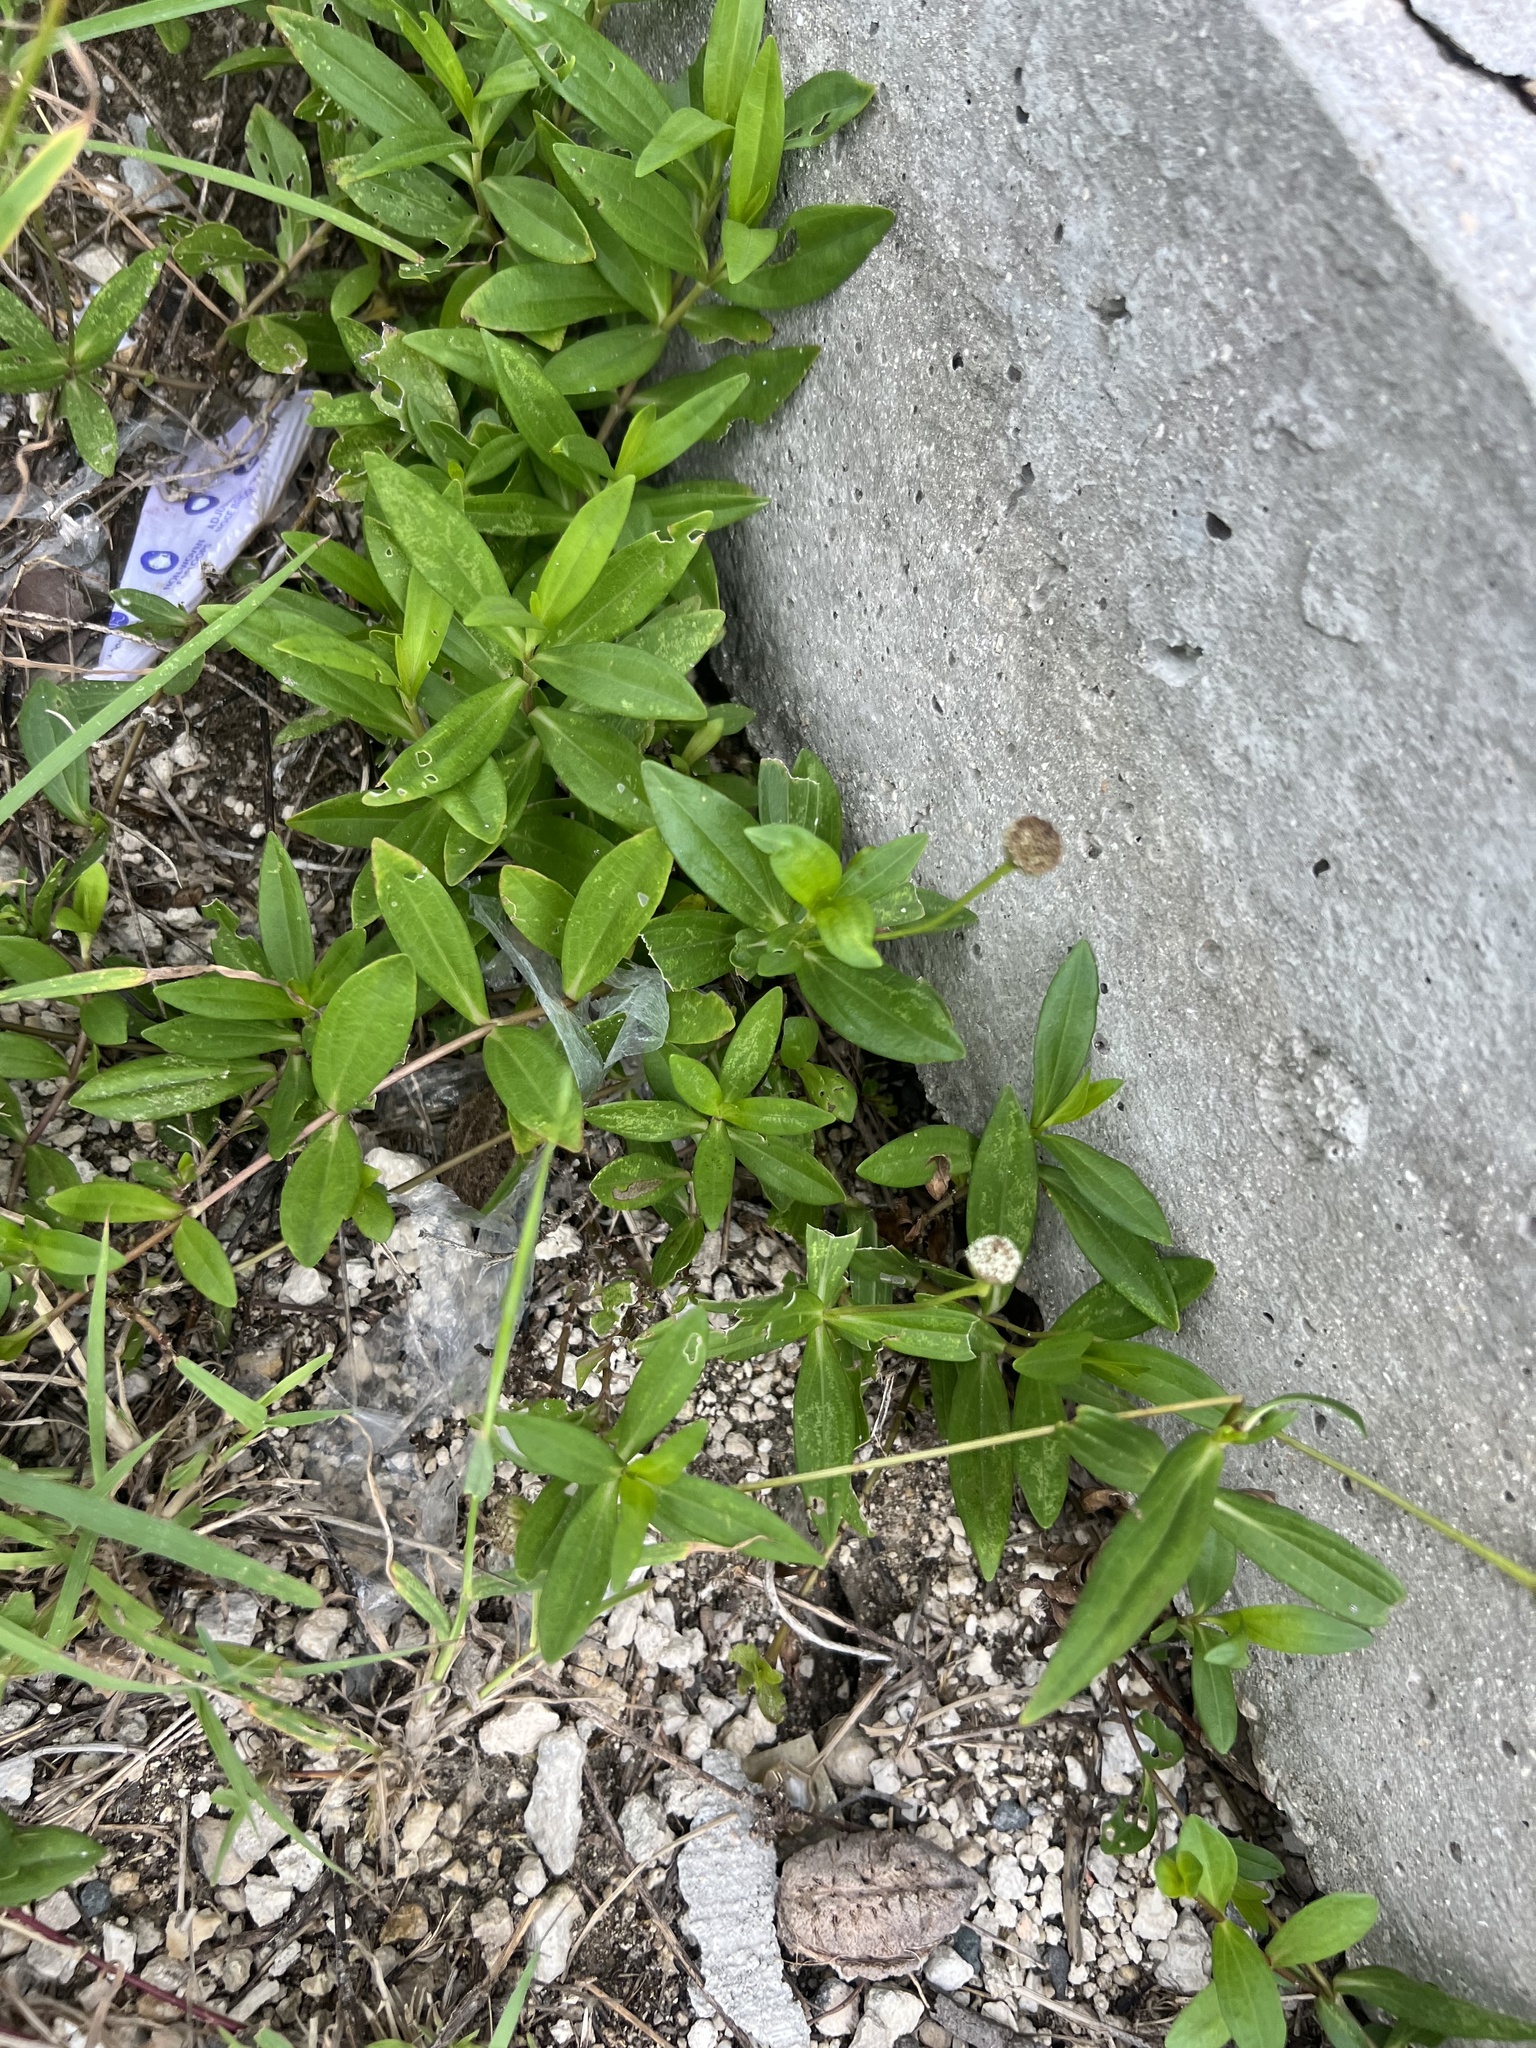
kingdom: Plantae
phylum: Tracheophyta
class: Magnoliopsida
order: Asterales
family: Asteraceae
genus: Spilanthes
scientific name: Spilanthes urens
